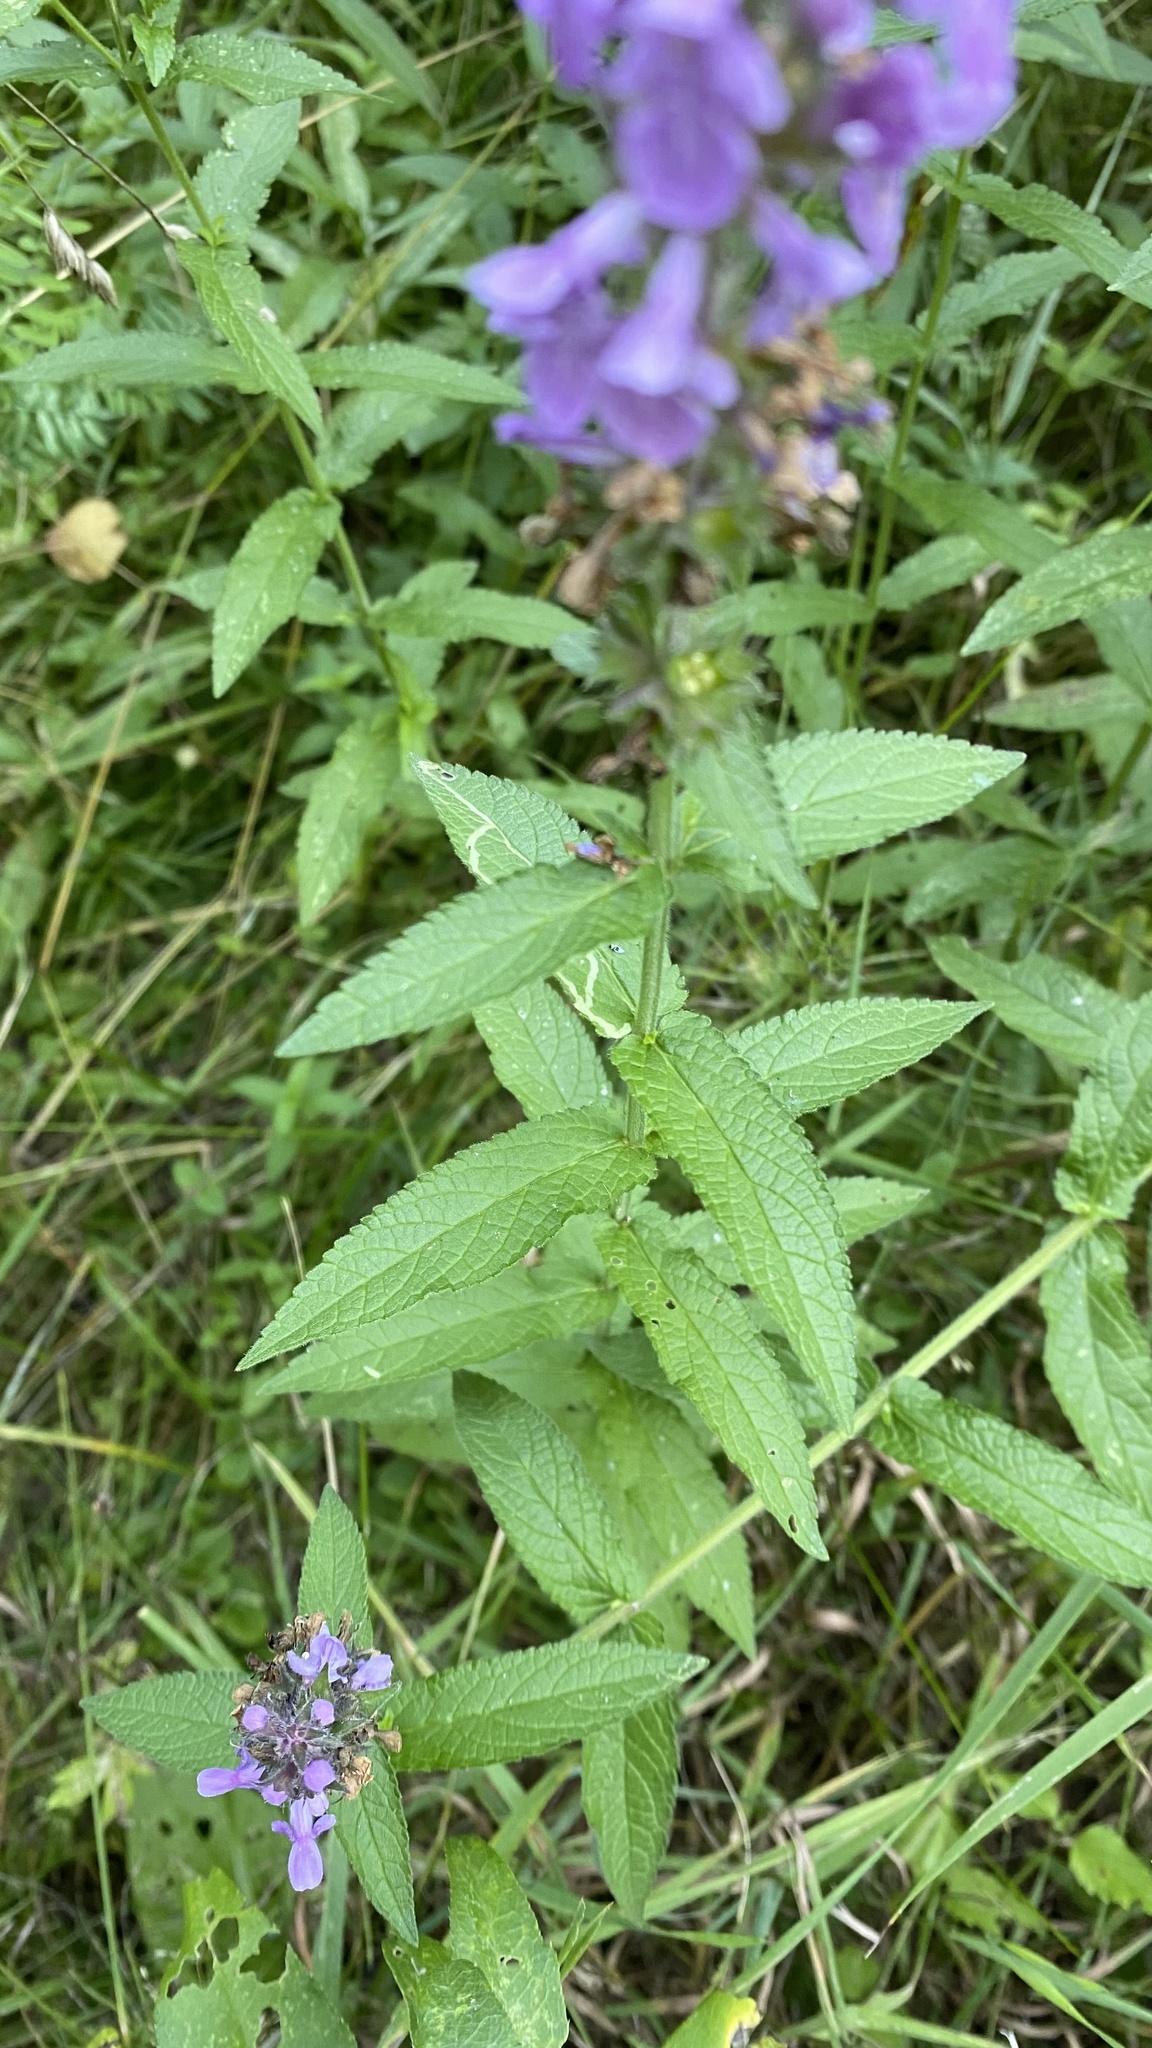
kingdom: Plantae
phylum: Tracheophyta
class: Magnoliopsida
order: Lamiales
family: Lamiaceae
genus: Stachys
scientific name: Stachys palustris
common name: Marsh woundwort
